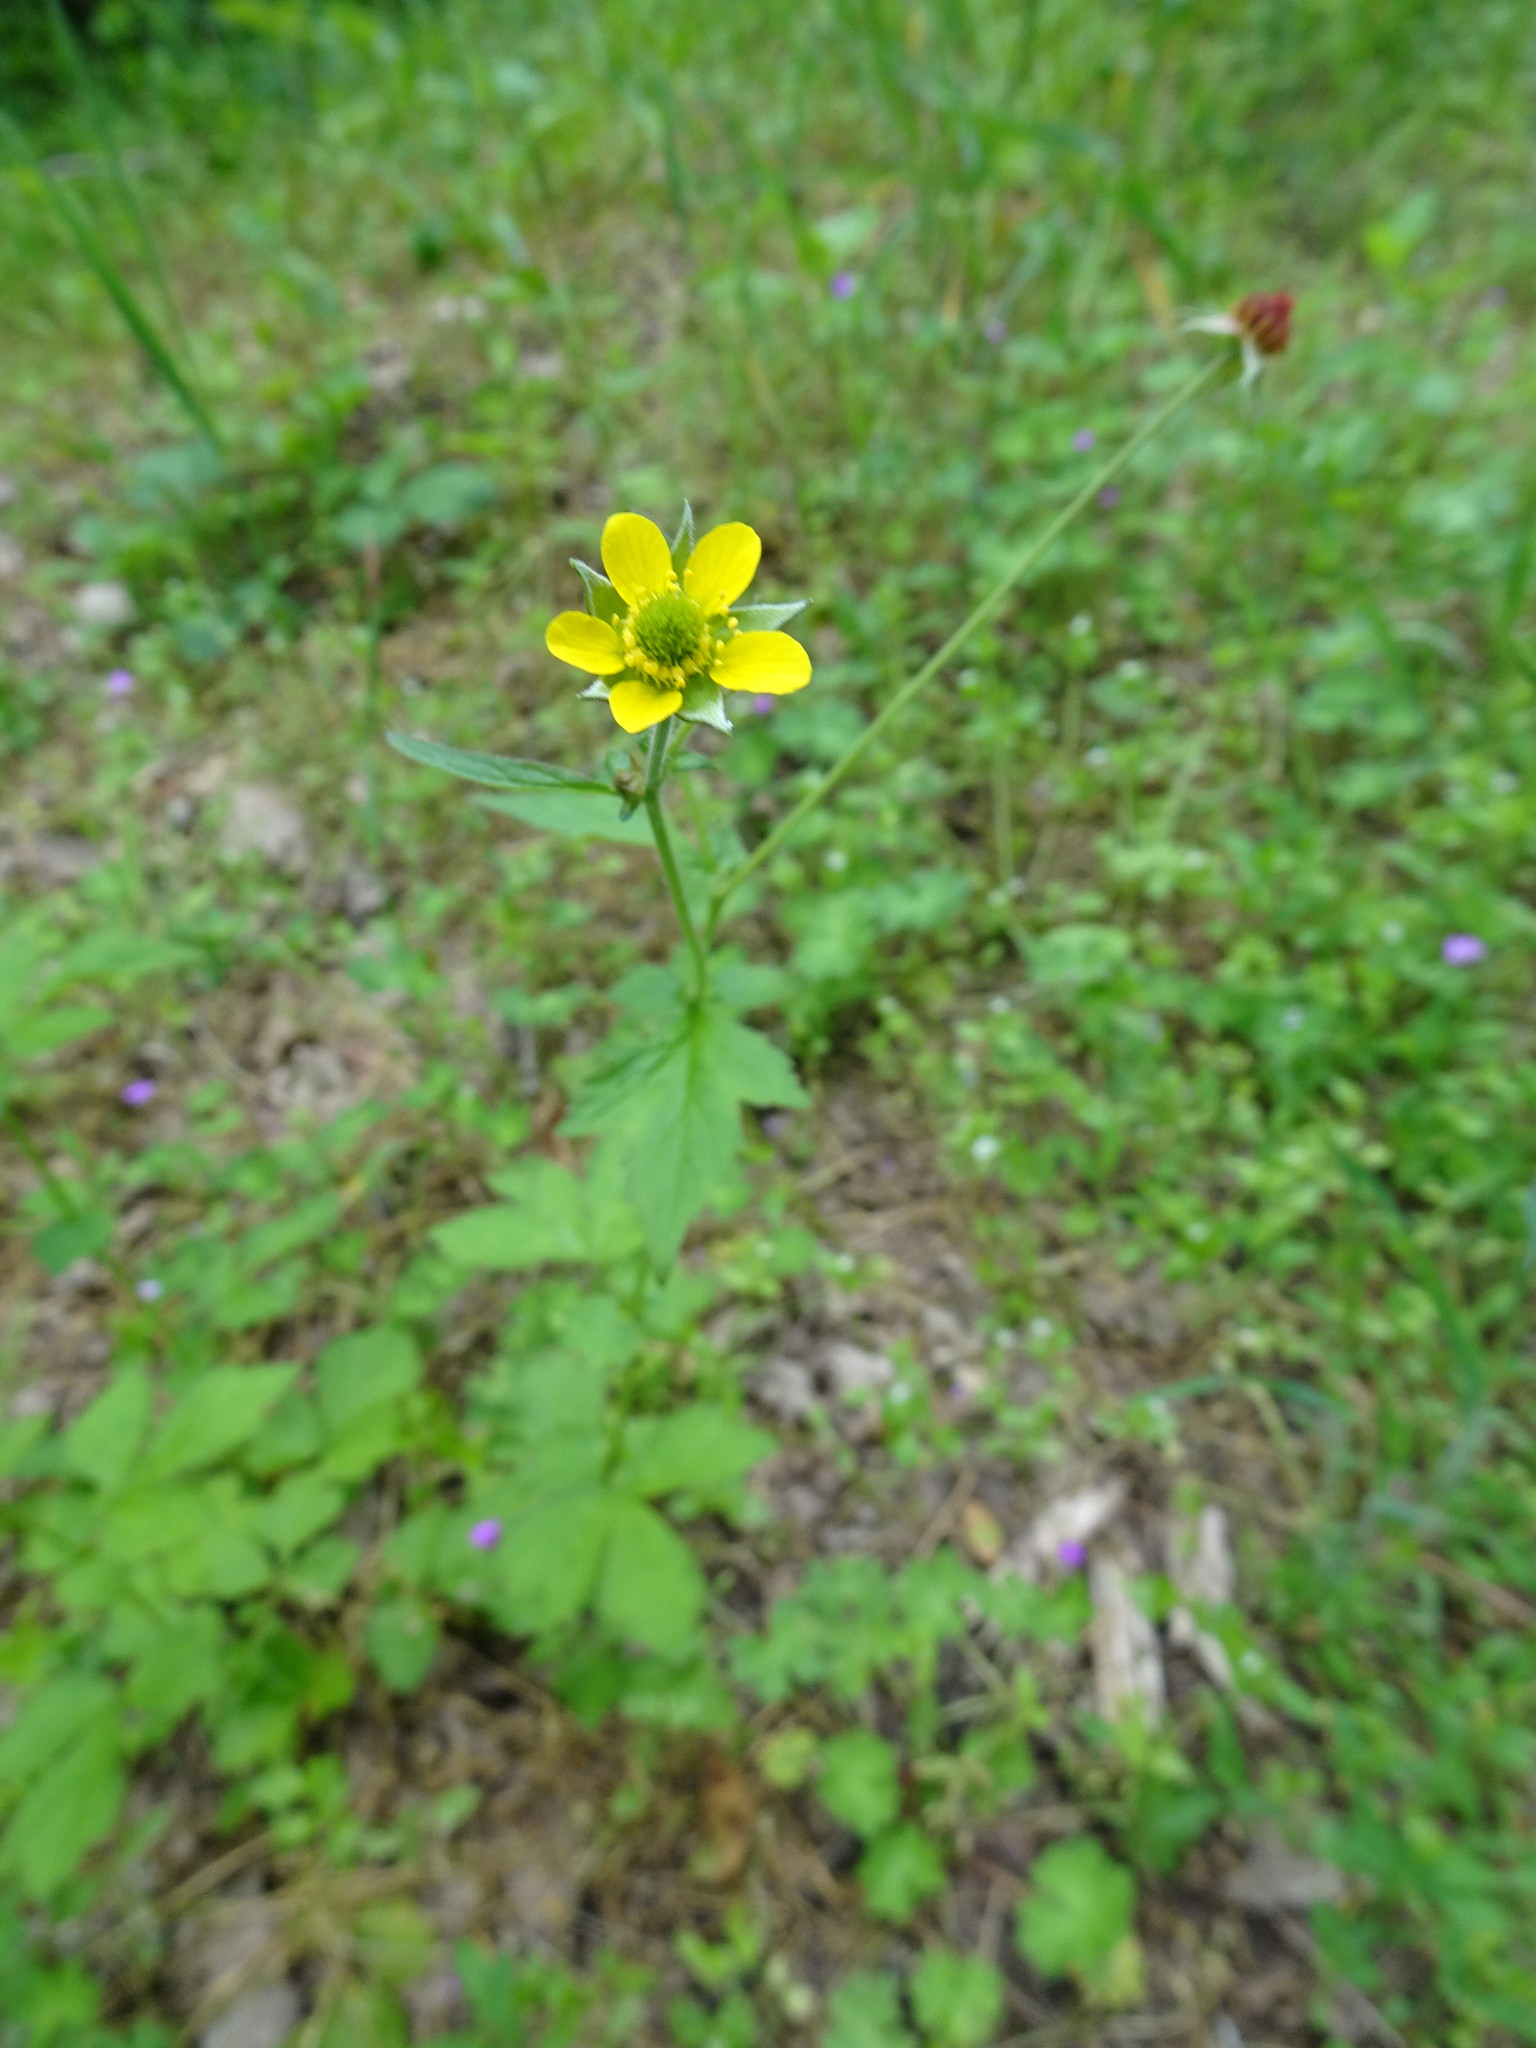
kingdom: Plantae
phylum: Tracheophyta
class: Magnoliopsida
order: Rosales
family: Rosaceae
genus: Geum
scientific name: Geum urbanum
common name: Wood avens
